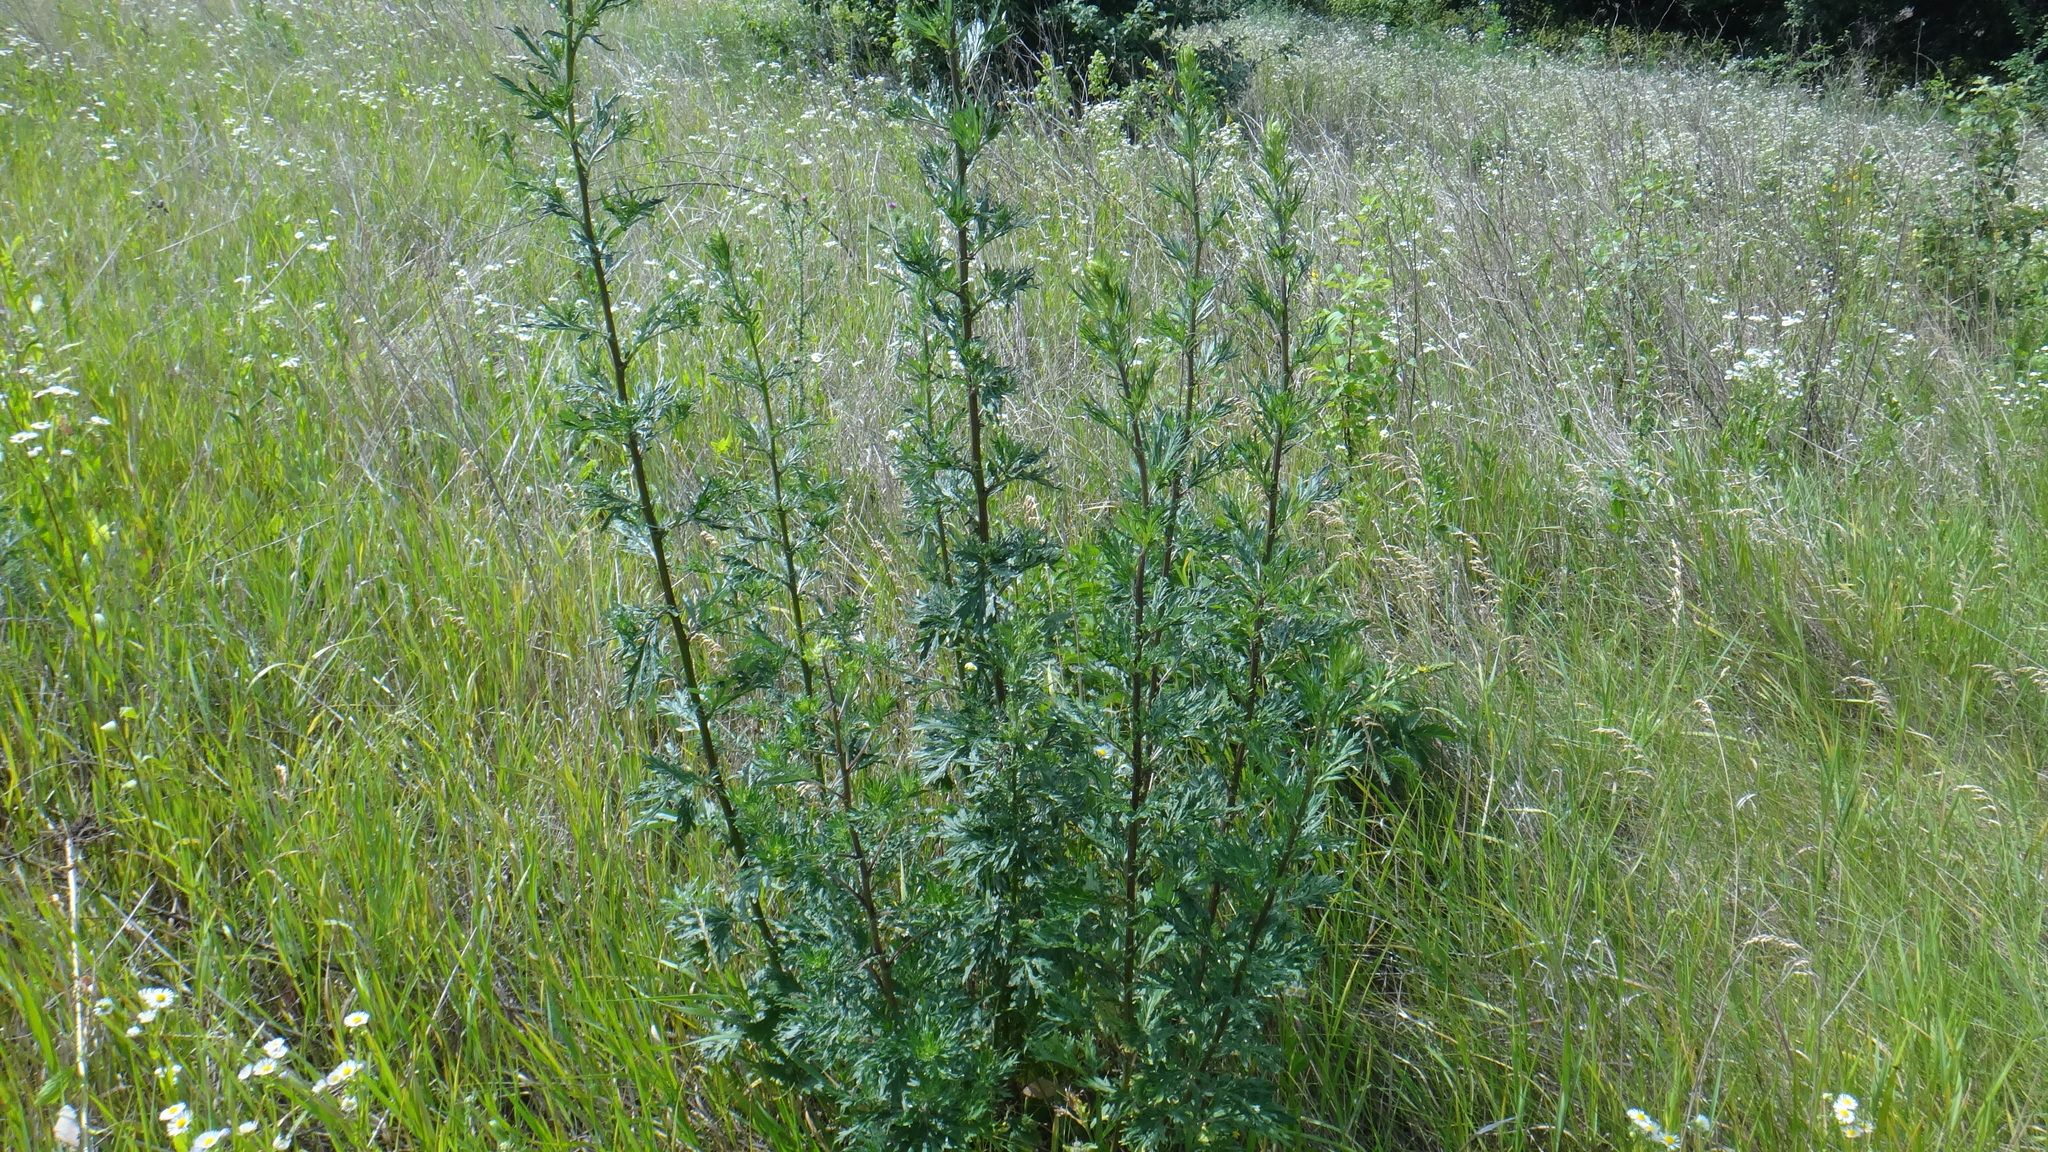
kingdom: Plantae
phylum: Tracheophyta
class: Magnoliopsida
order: Asterales
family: Asteraceae
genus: Artemisia
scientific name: Artemisia vulgaris
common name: Mugwort
